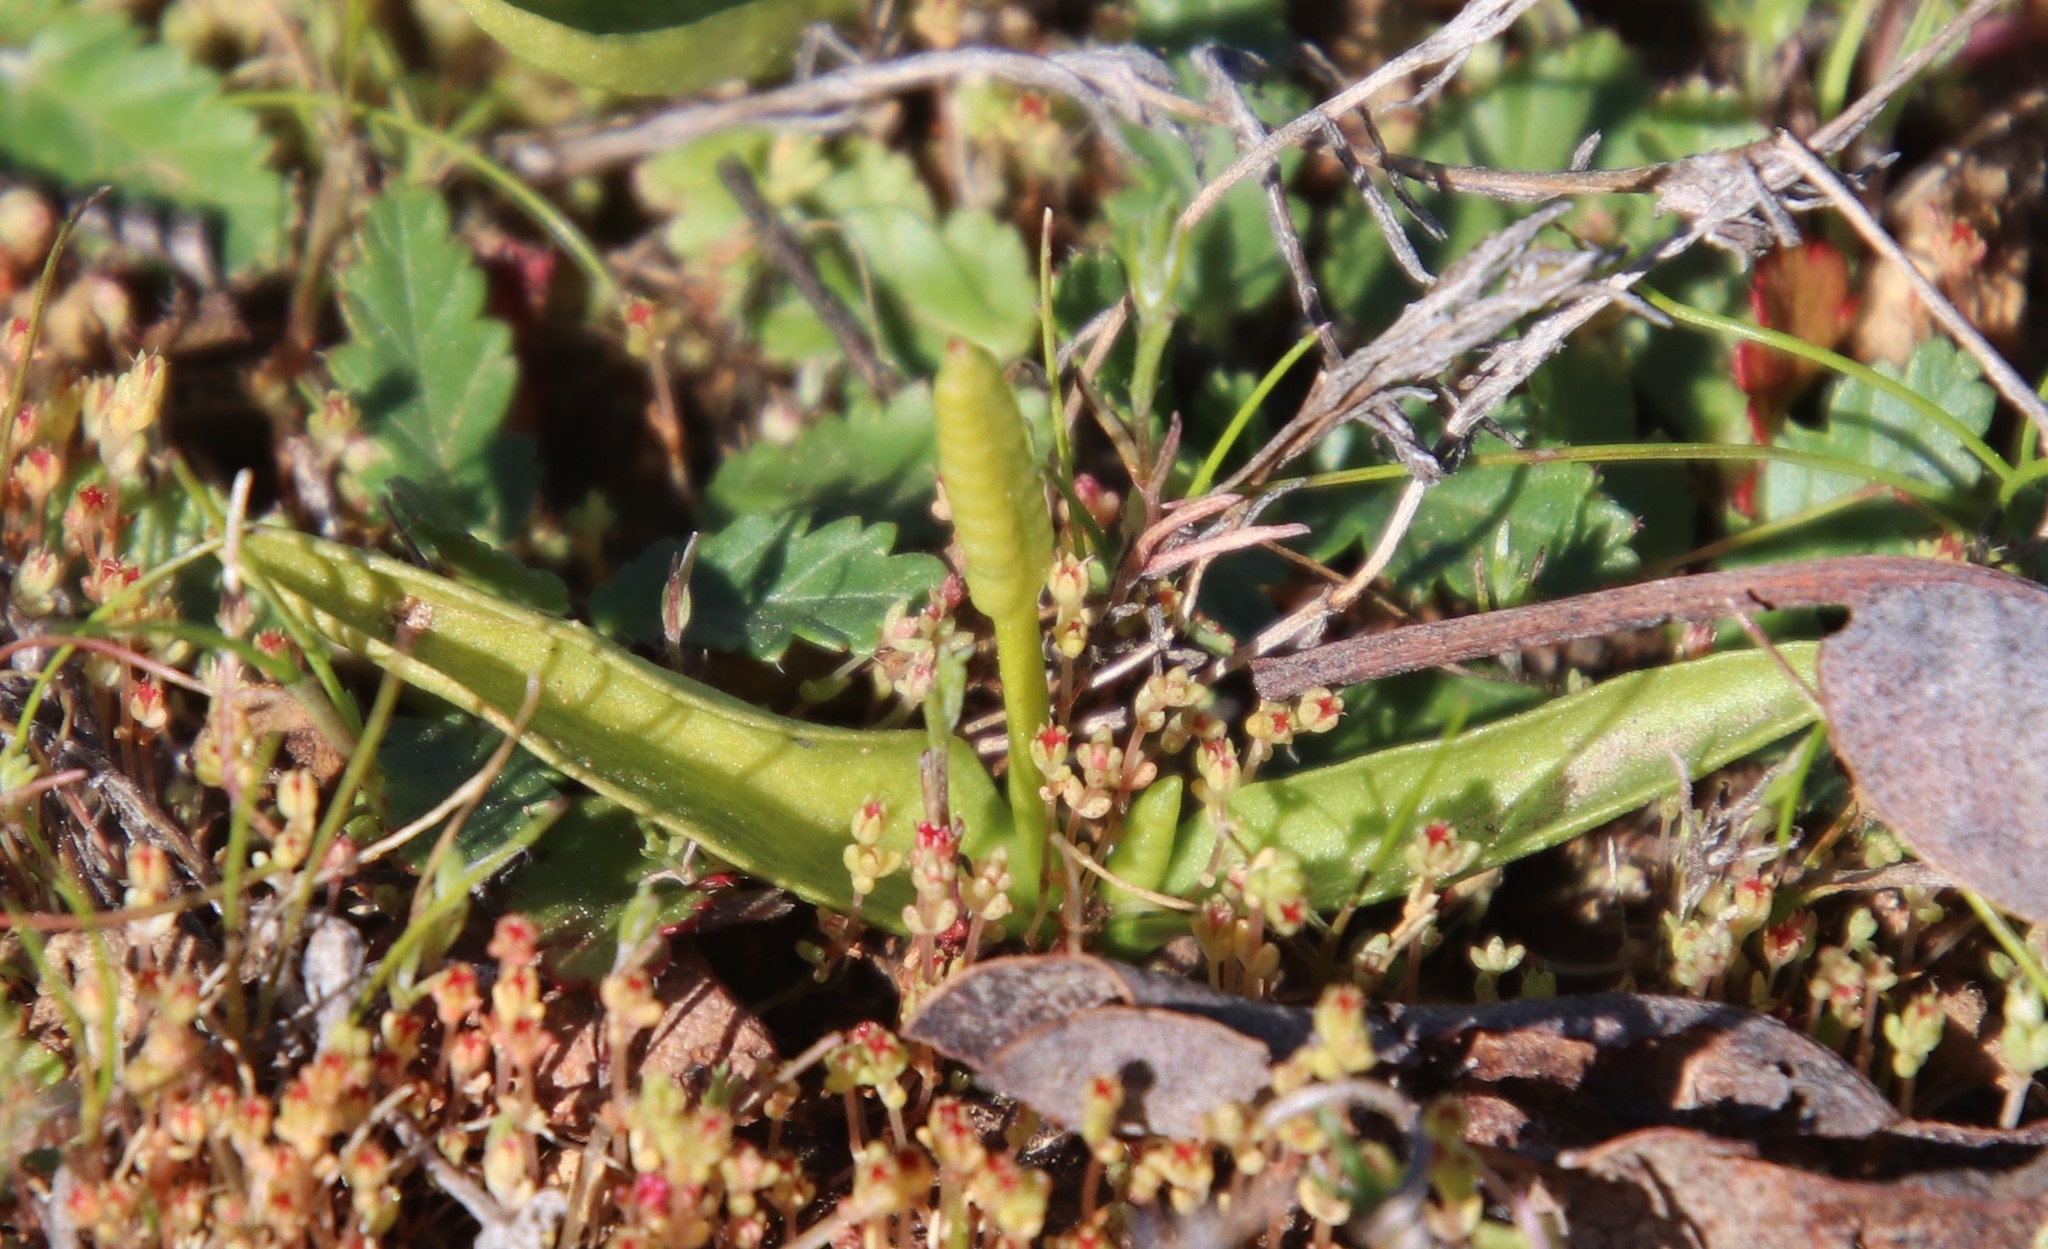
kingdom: Plantae
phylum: Tracheophyta
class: Polypodiopsida
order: Ophioglossales
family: Ophioglossaceae
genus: Ophioglossum
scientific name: Ophioglossum californicum
